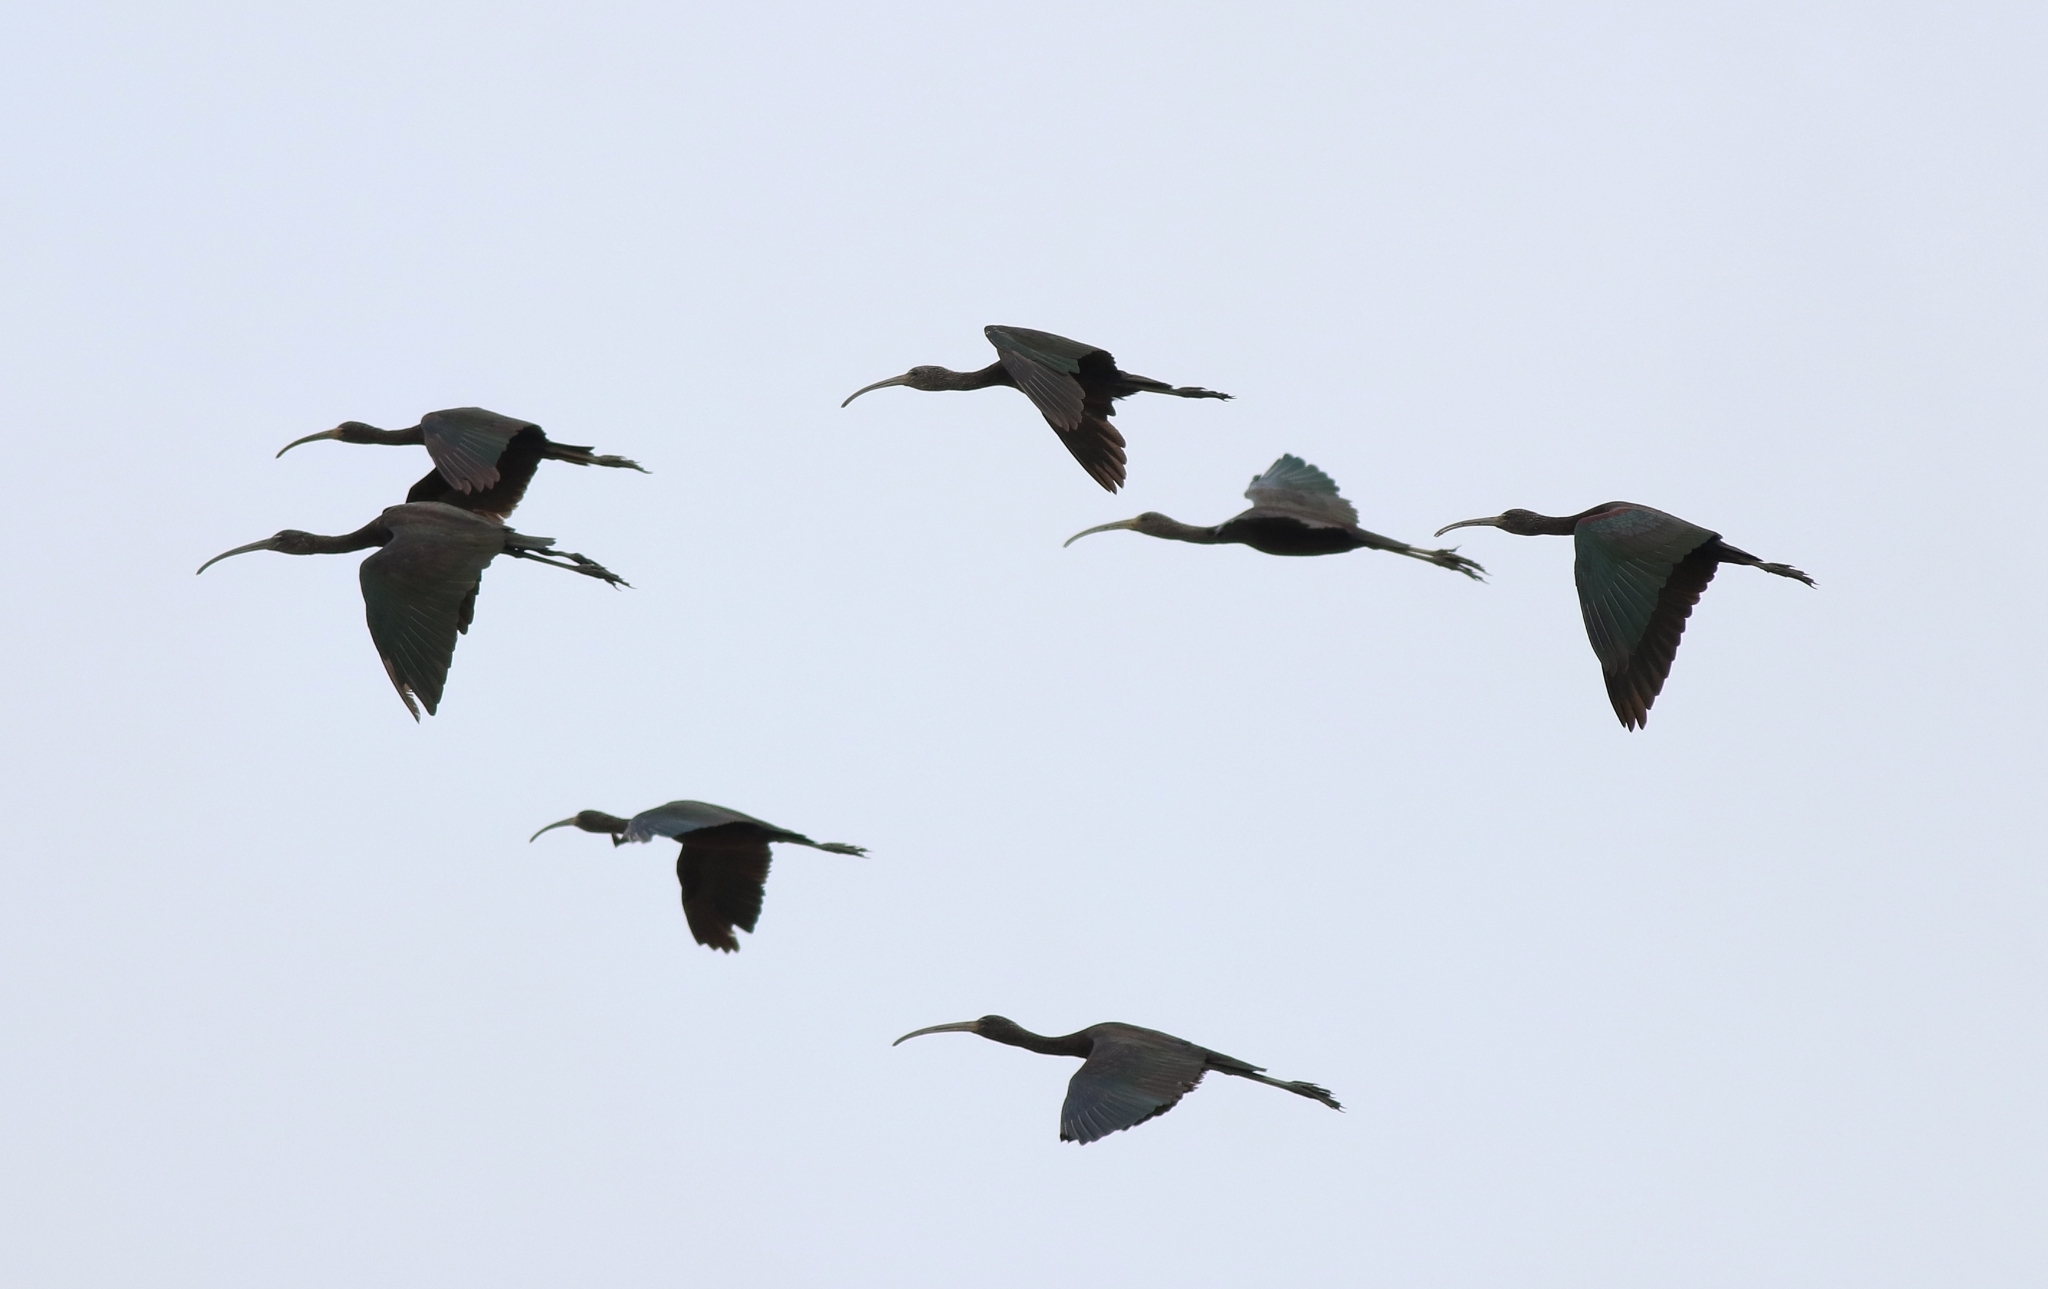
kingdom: Animalia
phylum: Chordata
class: Aves
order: Pelecaniformes
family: Threskiornithidae
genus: Plegadis
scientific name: Plegadis falcinellus
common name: Glossy ibis
